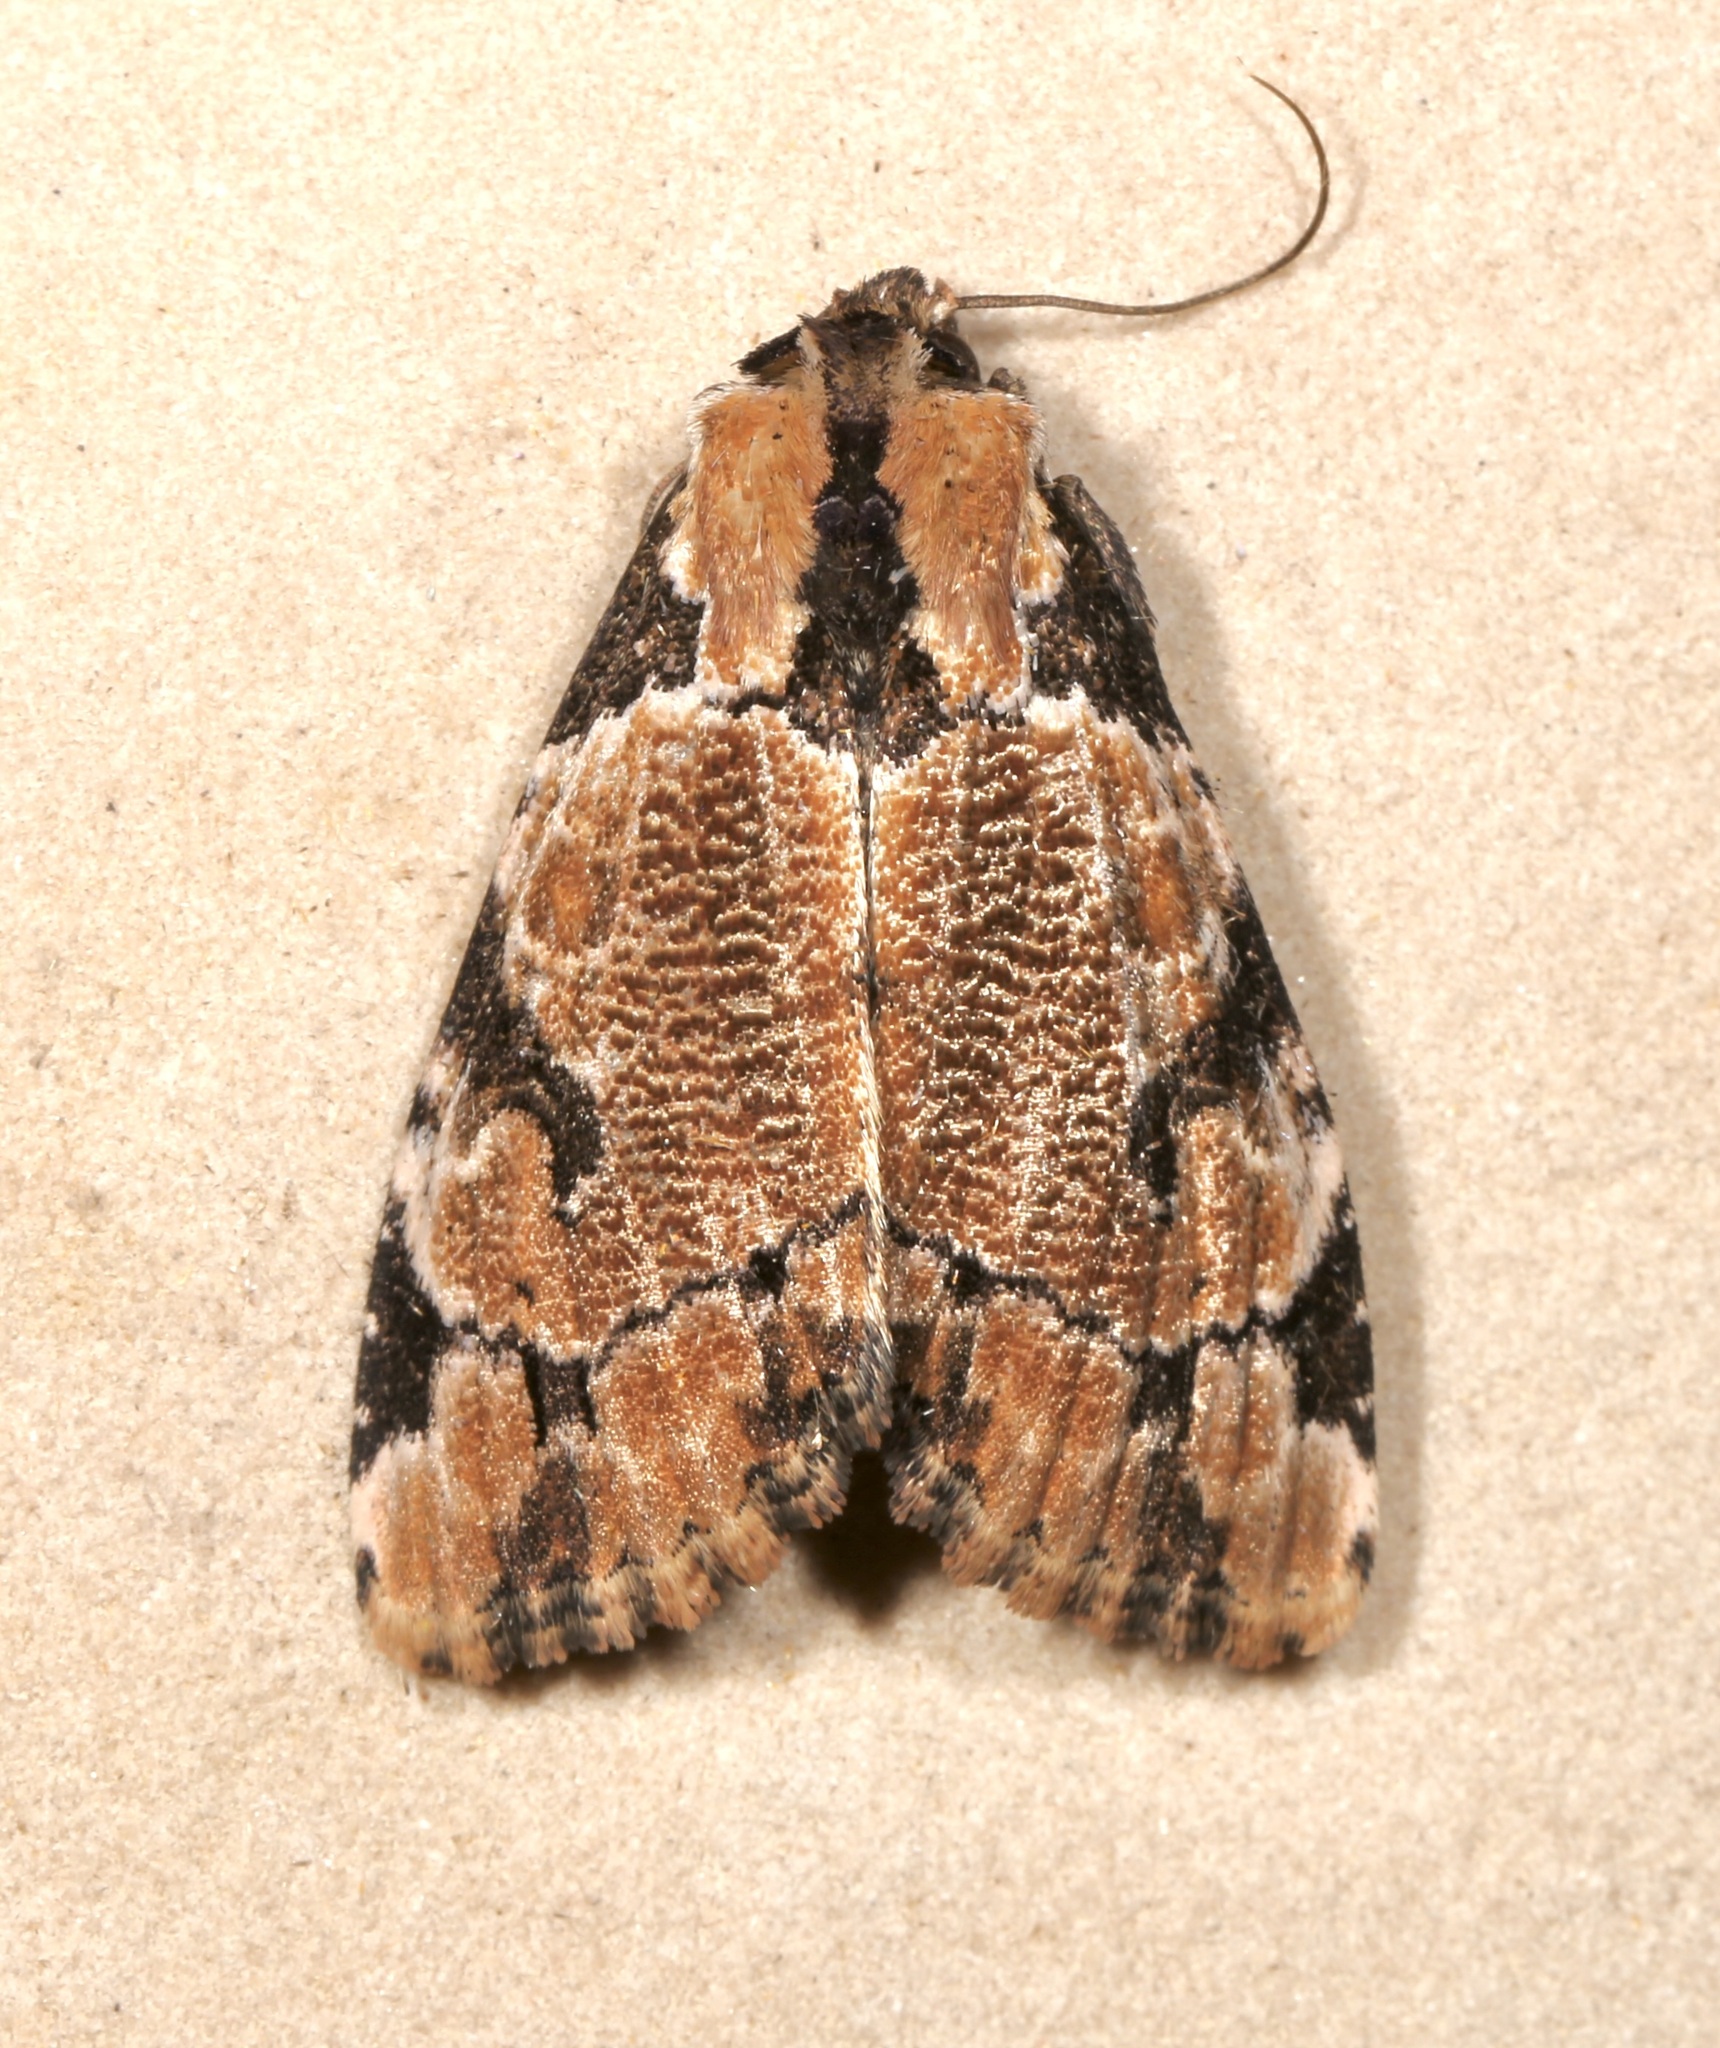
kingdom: Animalia
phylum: Arthropoda
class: Insecta
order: Lepidoptera
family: Noctuidae
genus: Stibaera
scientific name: Stibaera thyatiroides
